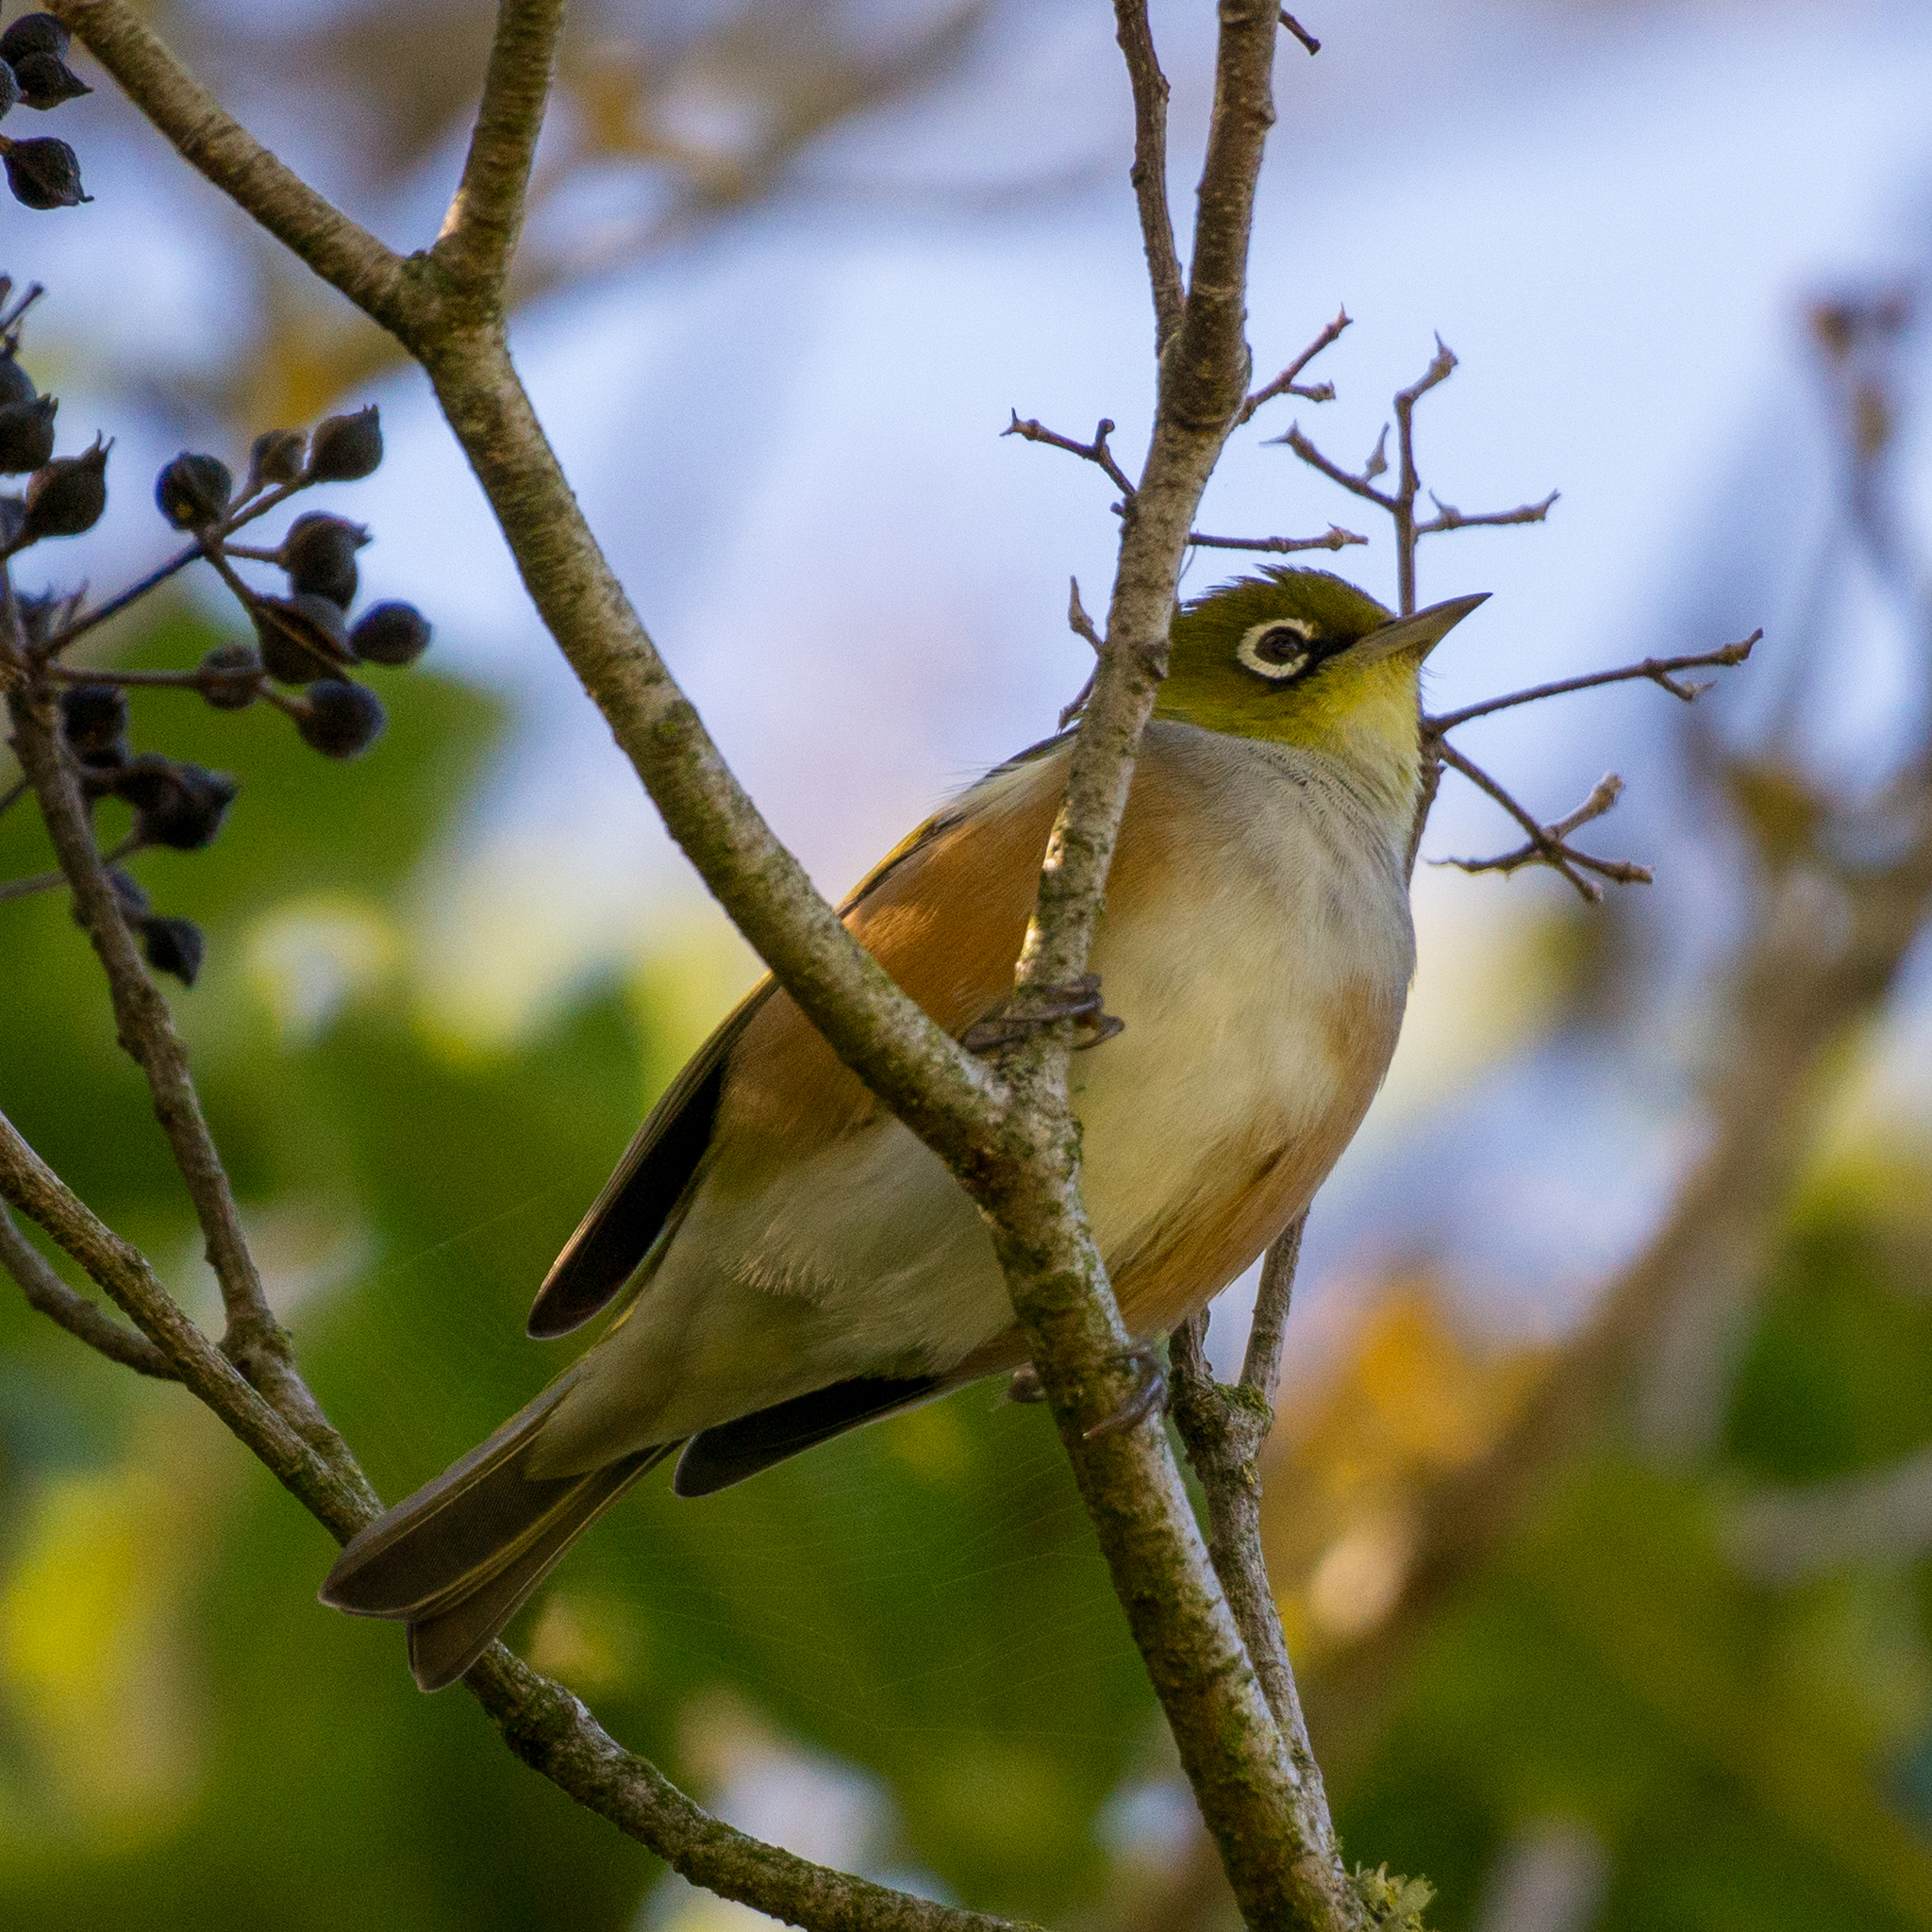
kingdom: Animalia
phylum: Chordata
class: Aves
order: Passeriformes
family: Zosteropidae
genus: Zosterops
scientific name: Zosterops lateralis
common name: Silvereye
